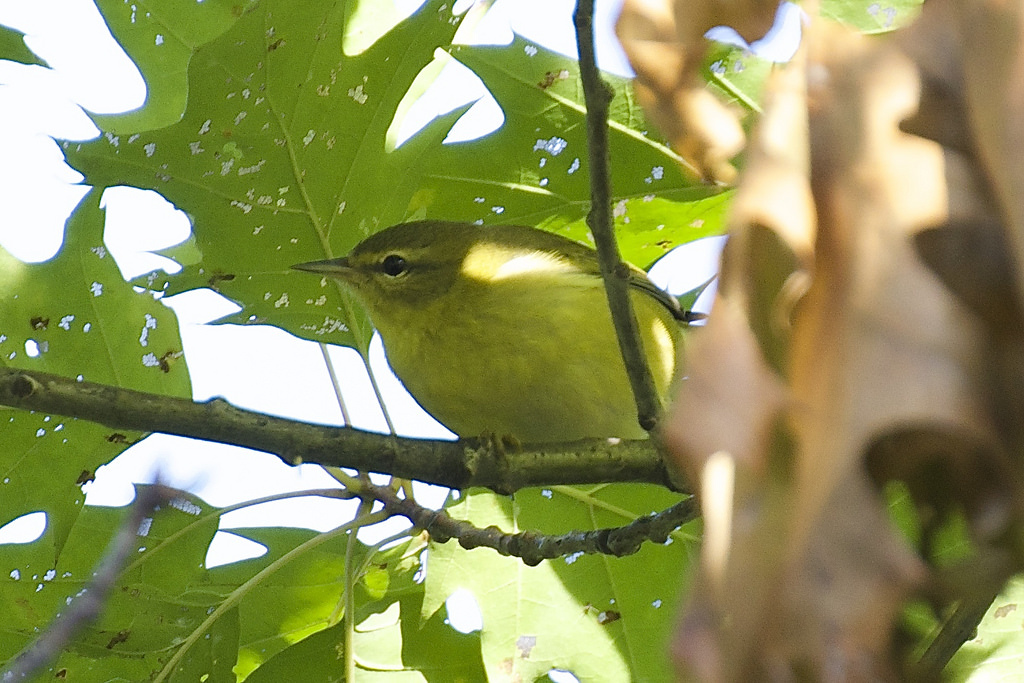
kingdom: Animalia
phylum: Chordata
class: Aves
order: Passeriformes
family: Parulidae
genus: Leiothlypis
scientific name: Leiothlypis peregrina
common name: Tennessee warbler
